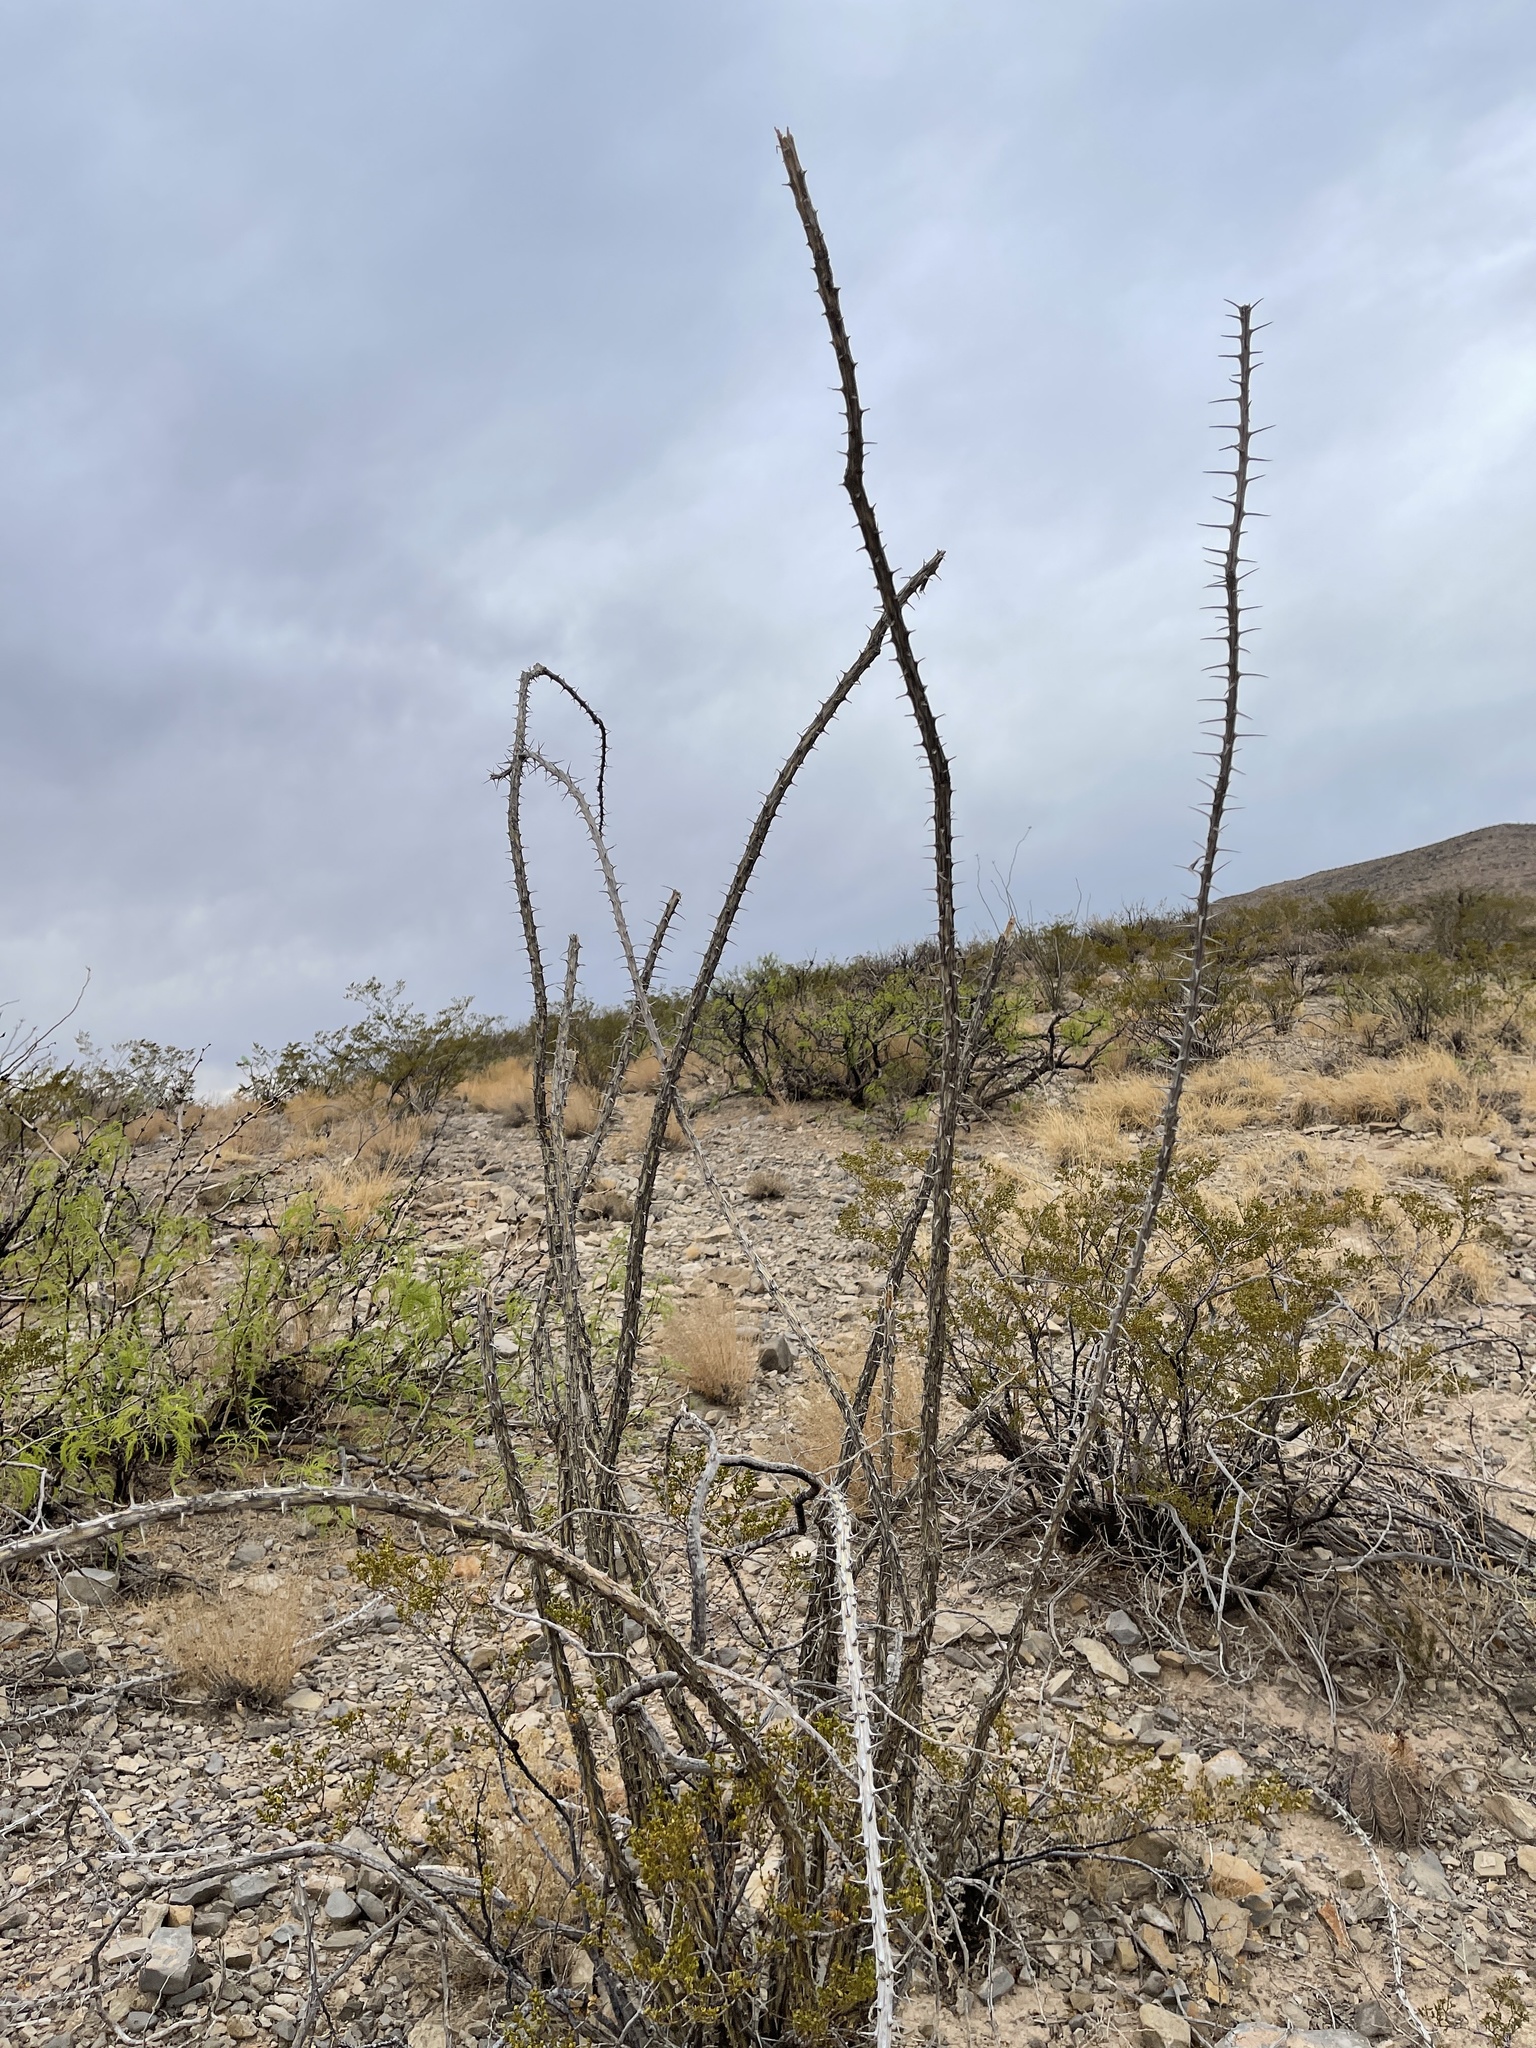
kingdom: Plantae
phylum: Tracheophyta
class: Magnoliopsida
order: Ericales
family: Fouquieriaceae
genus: Fouquieria
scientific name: Fouquieria splendens
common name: Vine-cactus
